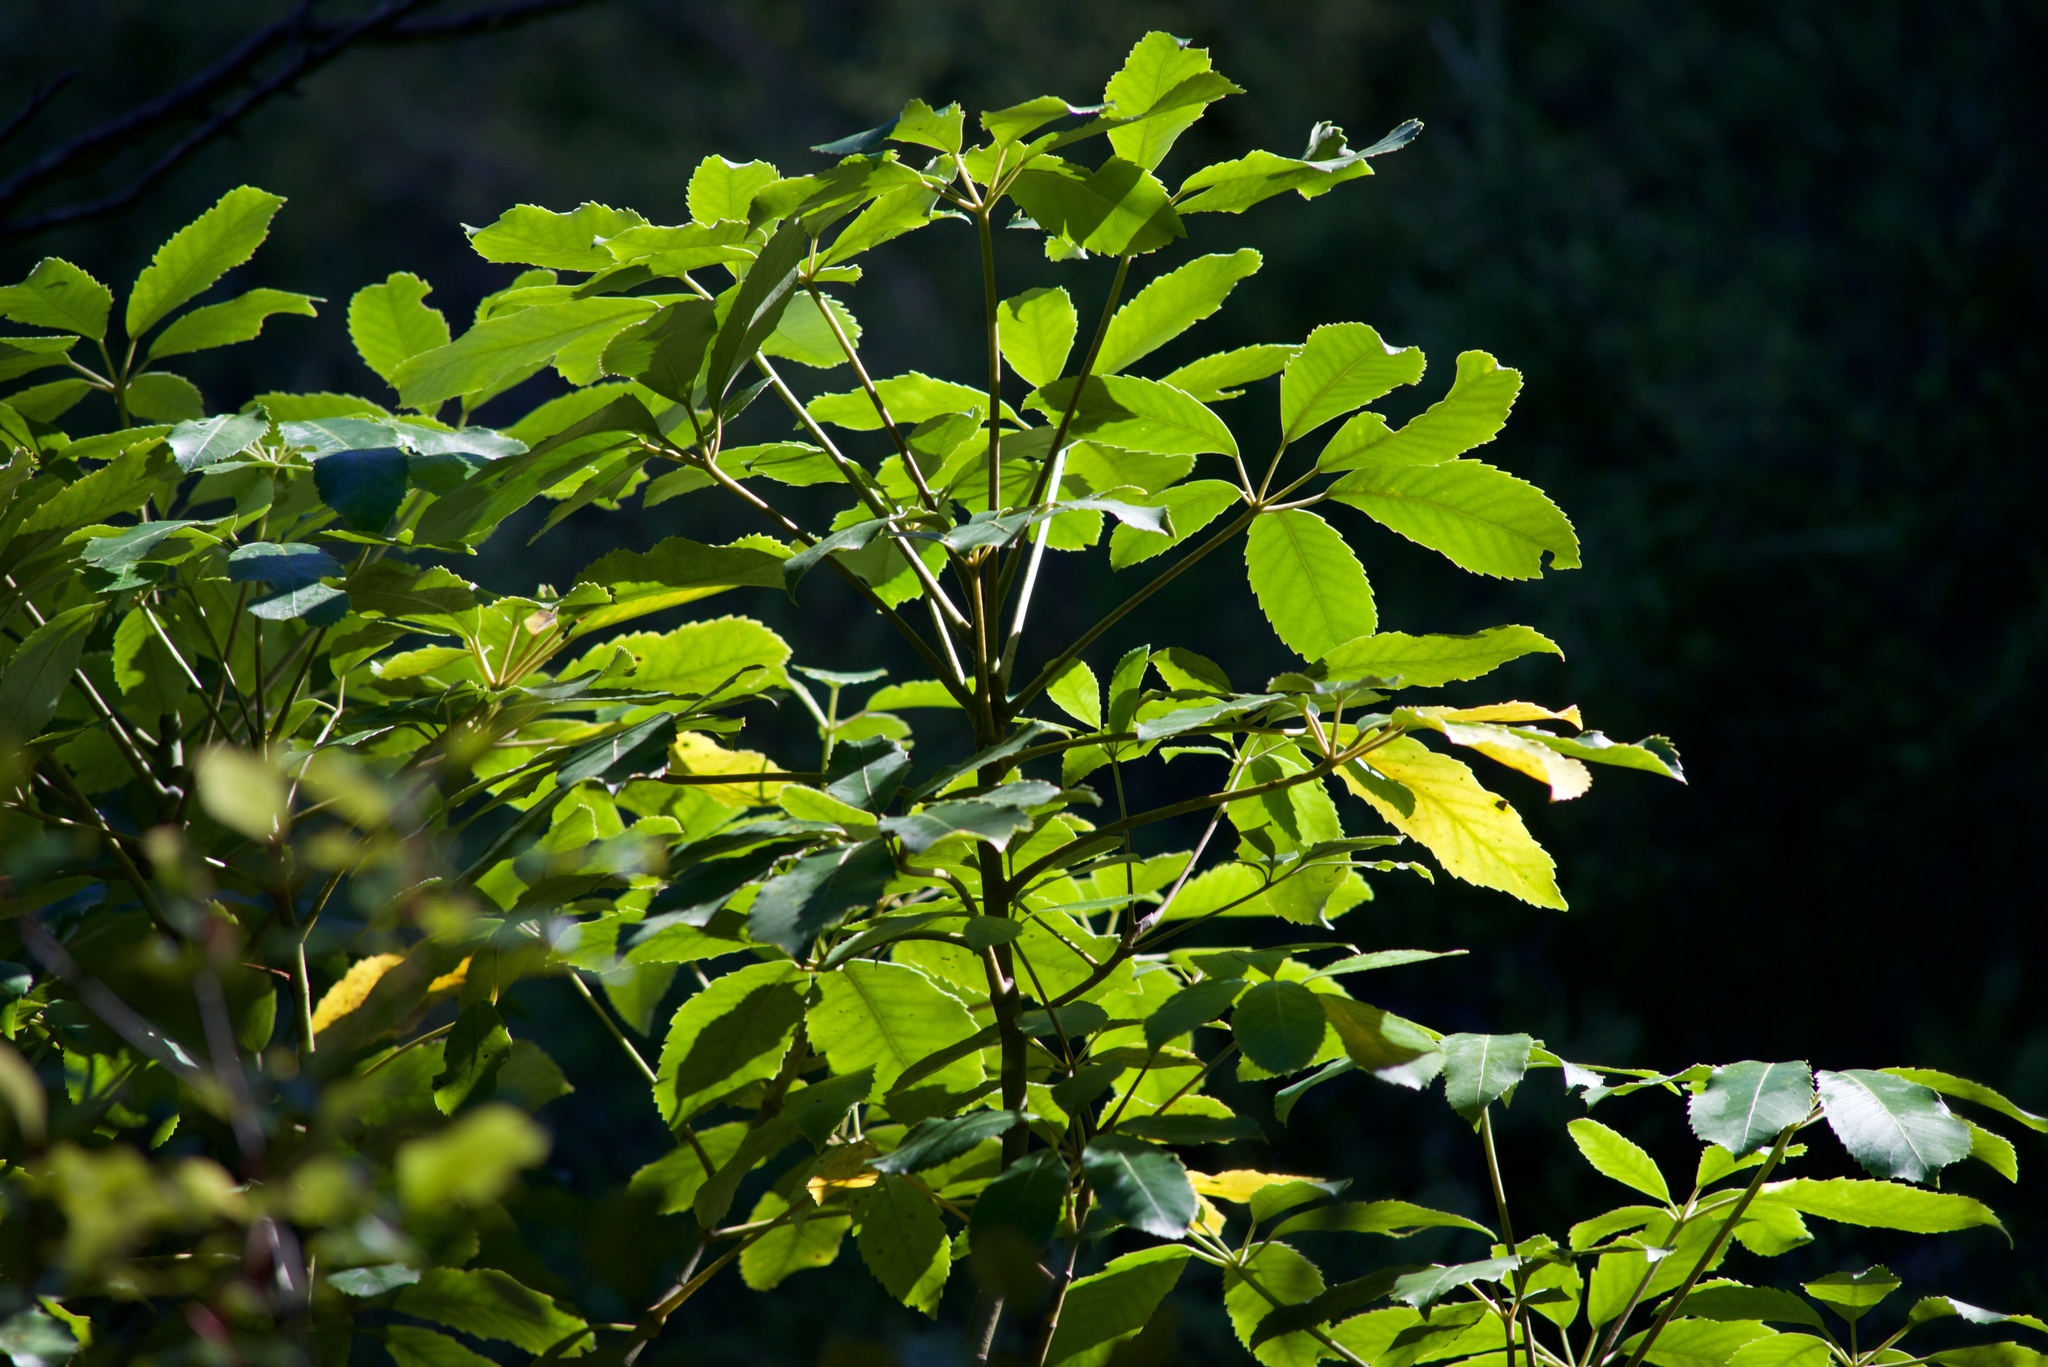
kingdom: Plantae
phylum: Tracheophyta
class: Magnoliopsida
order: Apiales
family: Araliaceae
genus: Neopanax
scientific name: Neopanax arboreus
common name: Five-fingers
